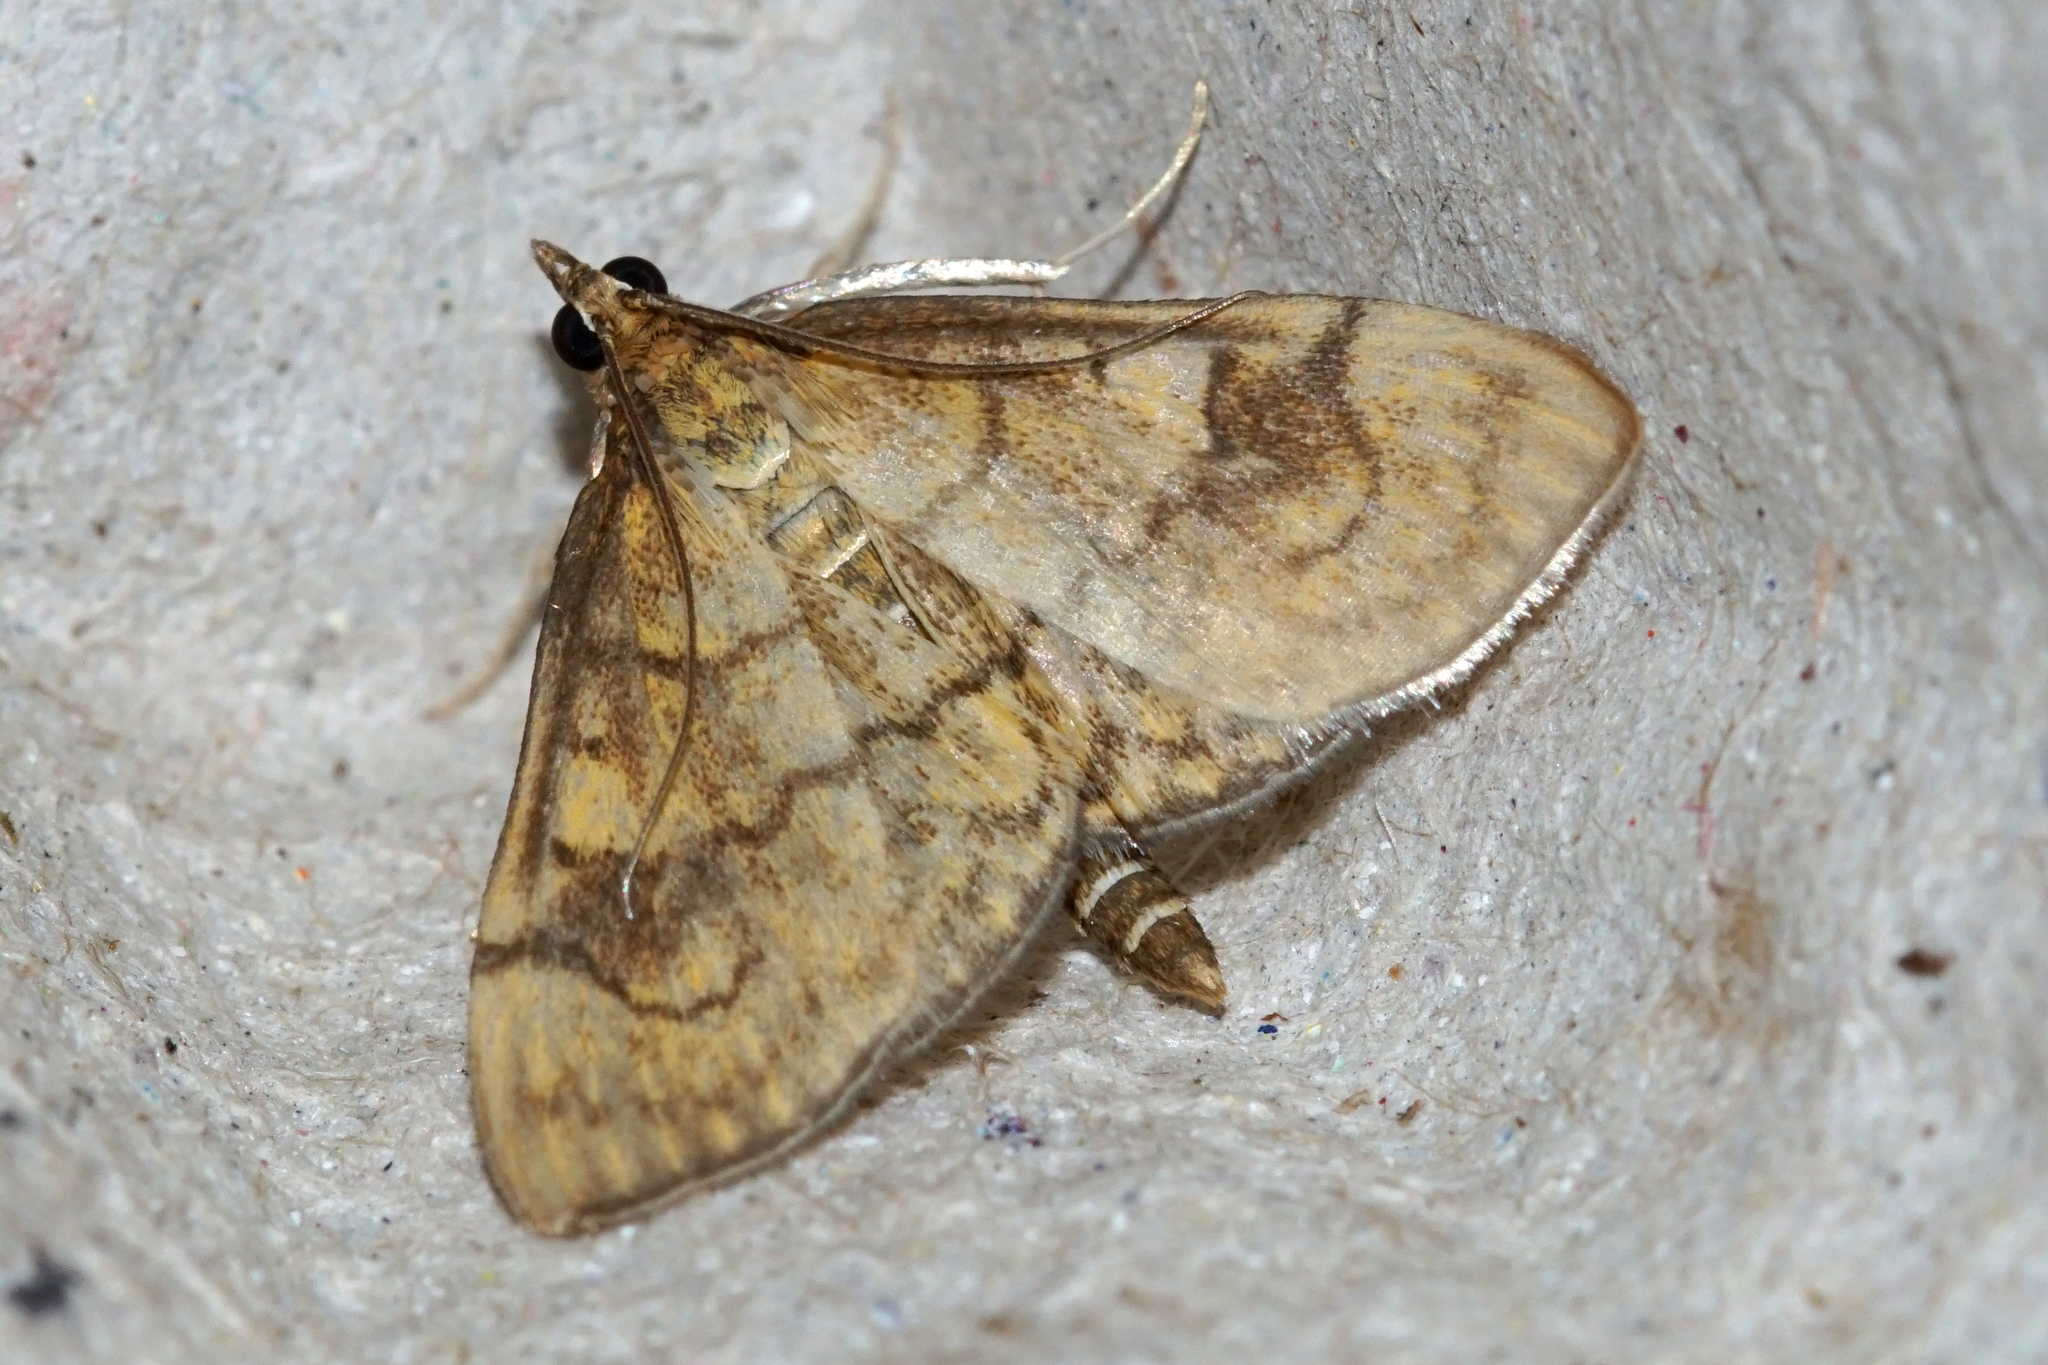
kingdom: Animalia
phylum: Arthropoda
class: Insecta
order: Lepidoptera
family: Crambidae
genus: Anania
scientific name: Anania verbascalis
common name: Golden pearl
